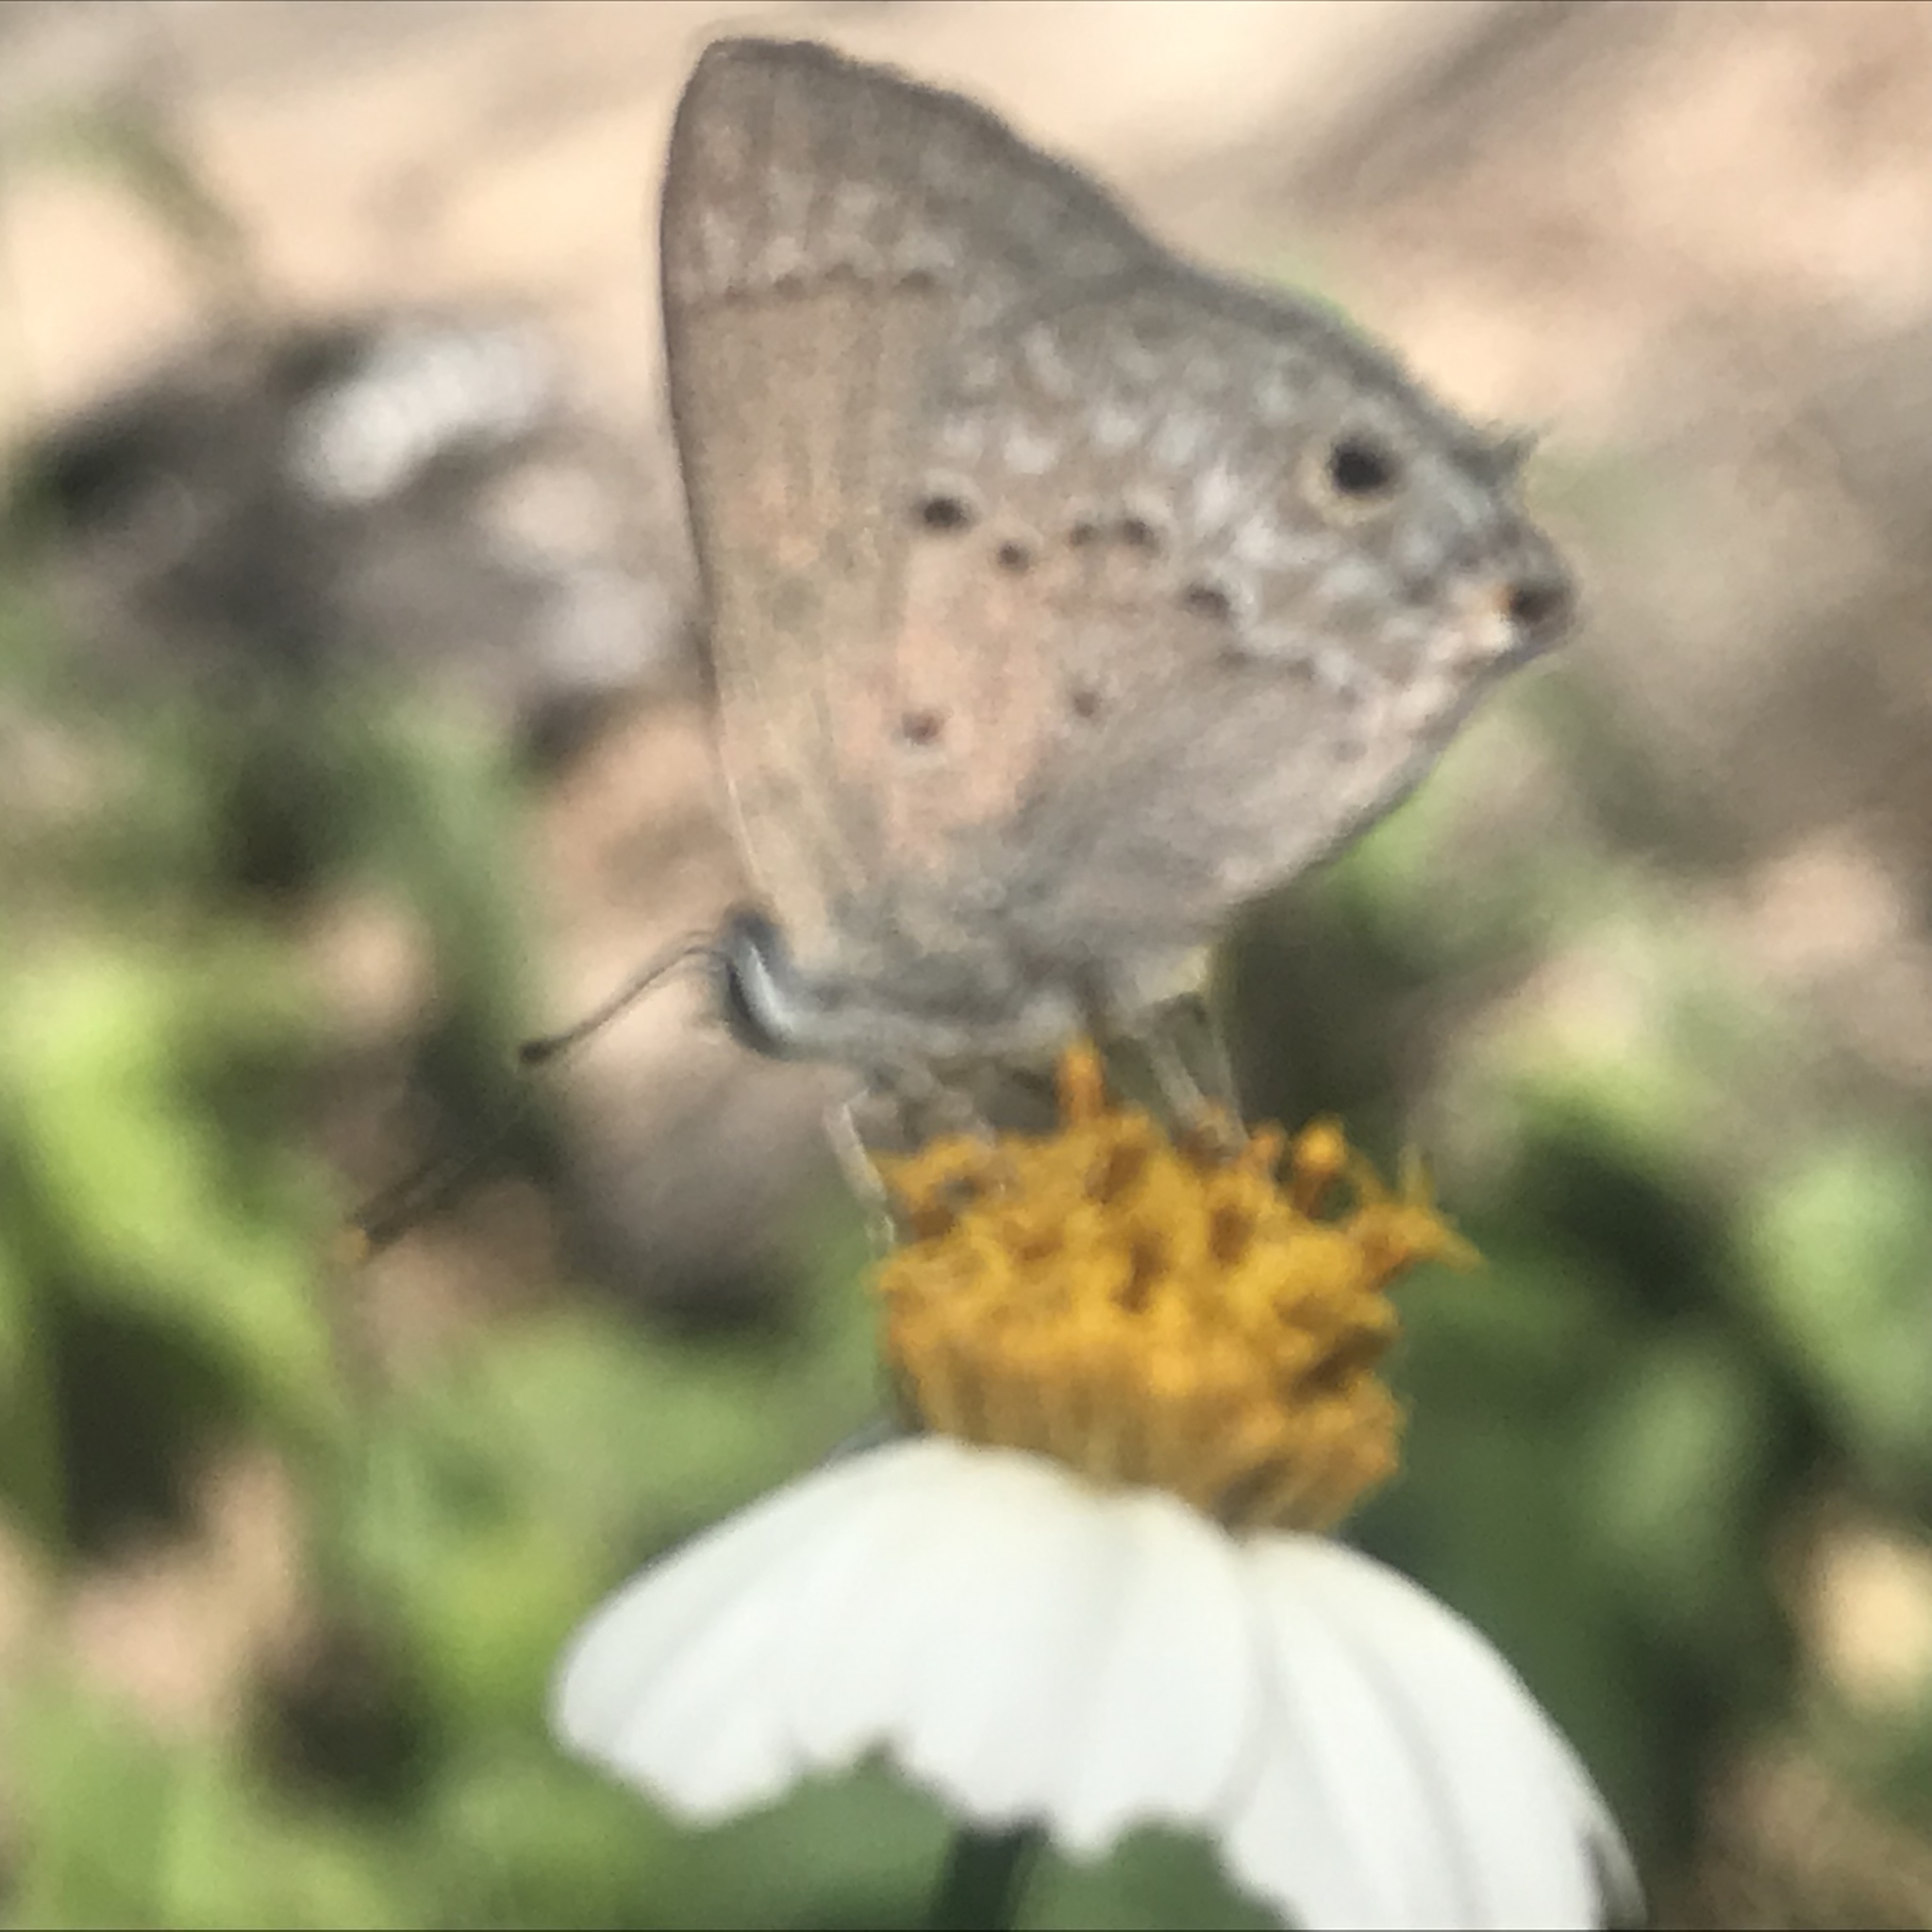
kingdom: Animalia
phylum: Arthropoda
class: Insecta
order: Lepidoptera
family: Lycaenidae
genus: Callicista
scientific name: Callicista columella
